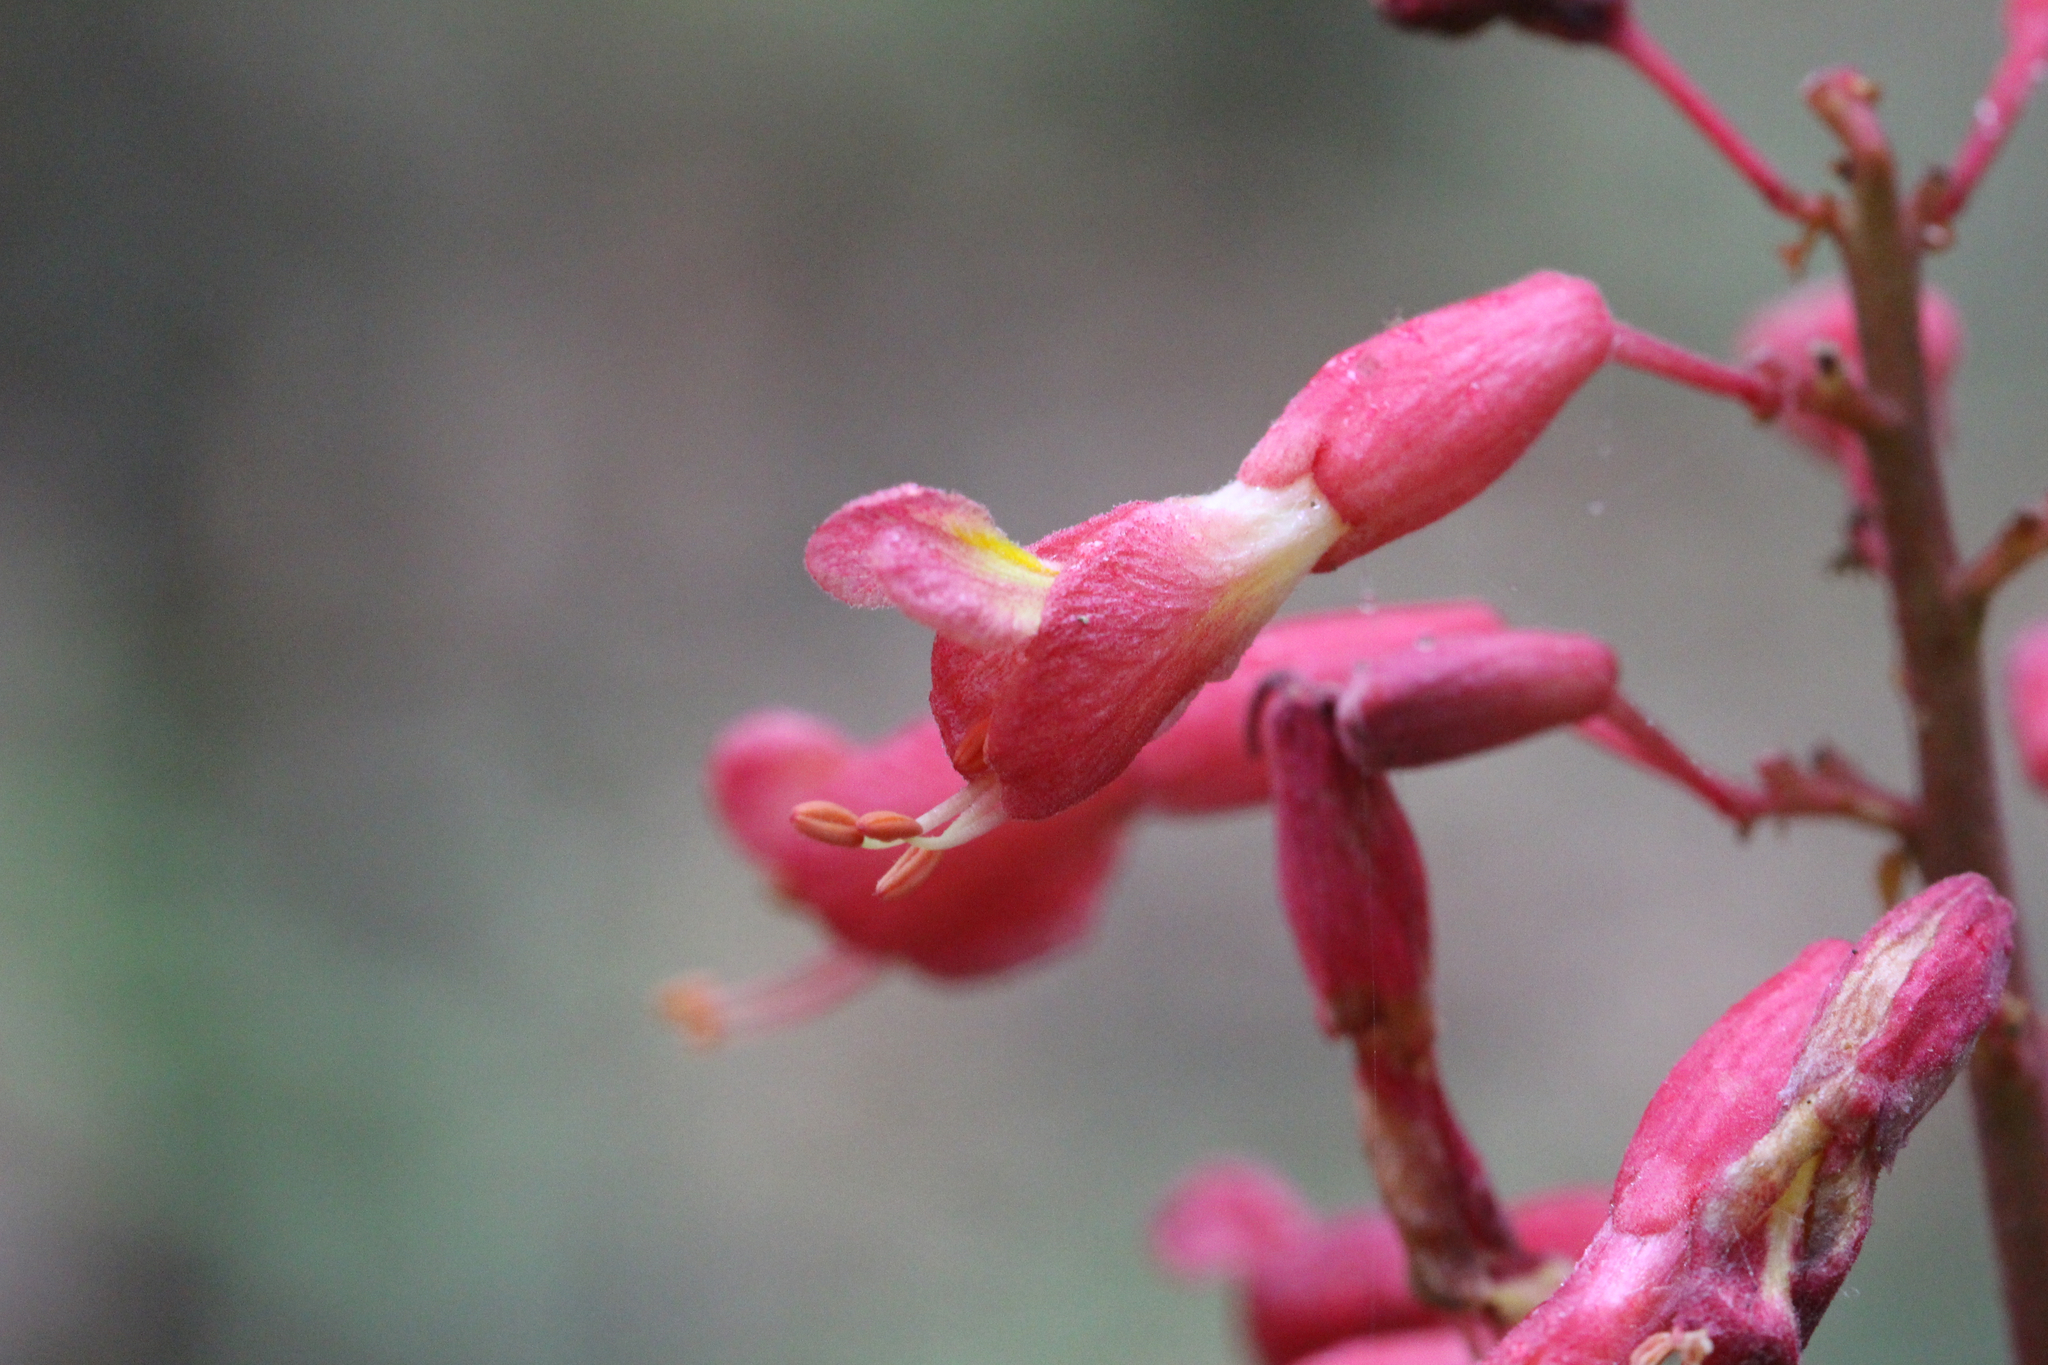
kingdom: Plantae
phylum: Tracheophyta
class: Magnoliopsida
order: Sapindales
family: Sapindaceae
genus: Aesculus
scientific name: Aesculus pavia
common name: Red buckeye
